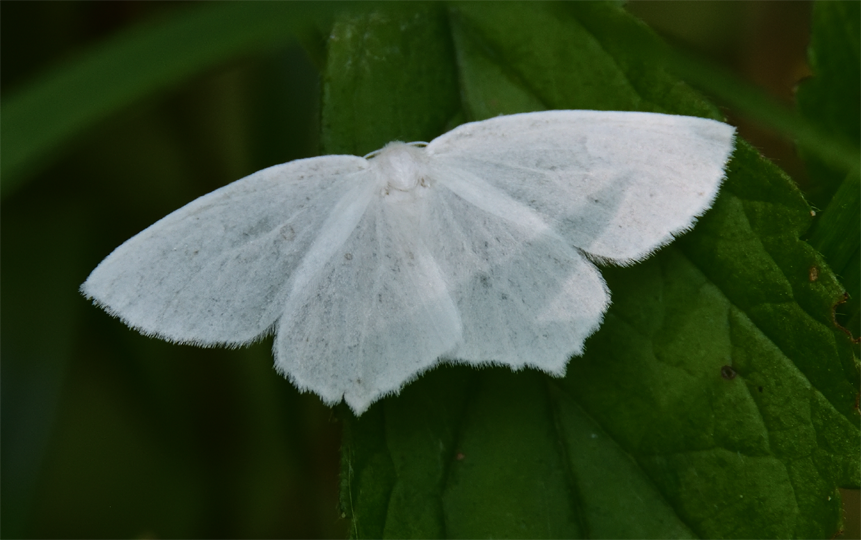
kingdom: Animalia
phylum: Arthropoda
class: Insecta
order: Lepidoptera
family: Geometridae
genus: Eugonobapta
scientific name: Eugonobapta nivosaria
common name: Snowy geometer
